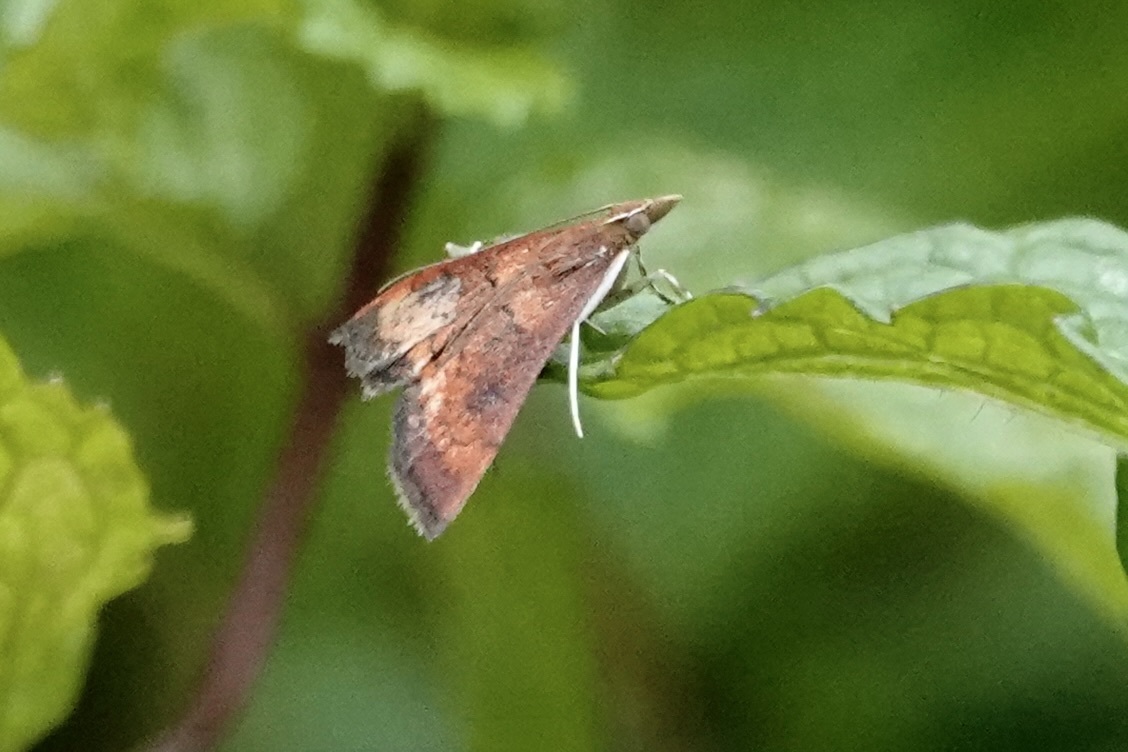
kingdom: Animalia
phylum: Arthropoda
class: Insecta
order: Lepidoptera
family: Crambidae
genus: Pyrausta
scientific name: Pyrausta rubricalis
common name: Variable reddish pyrausta
